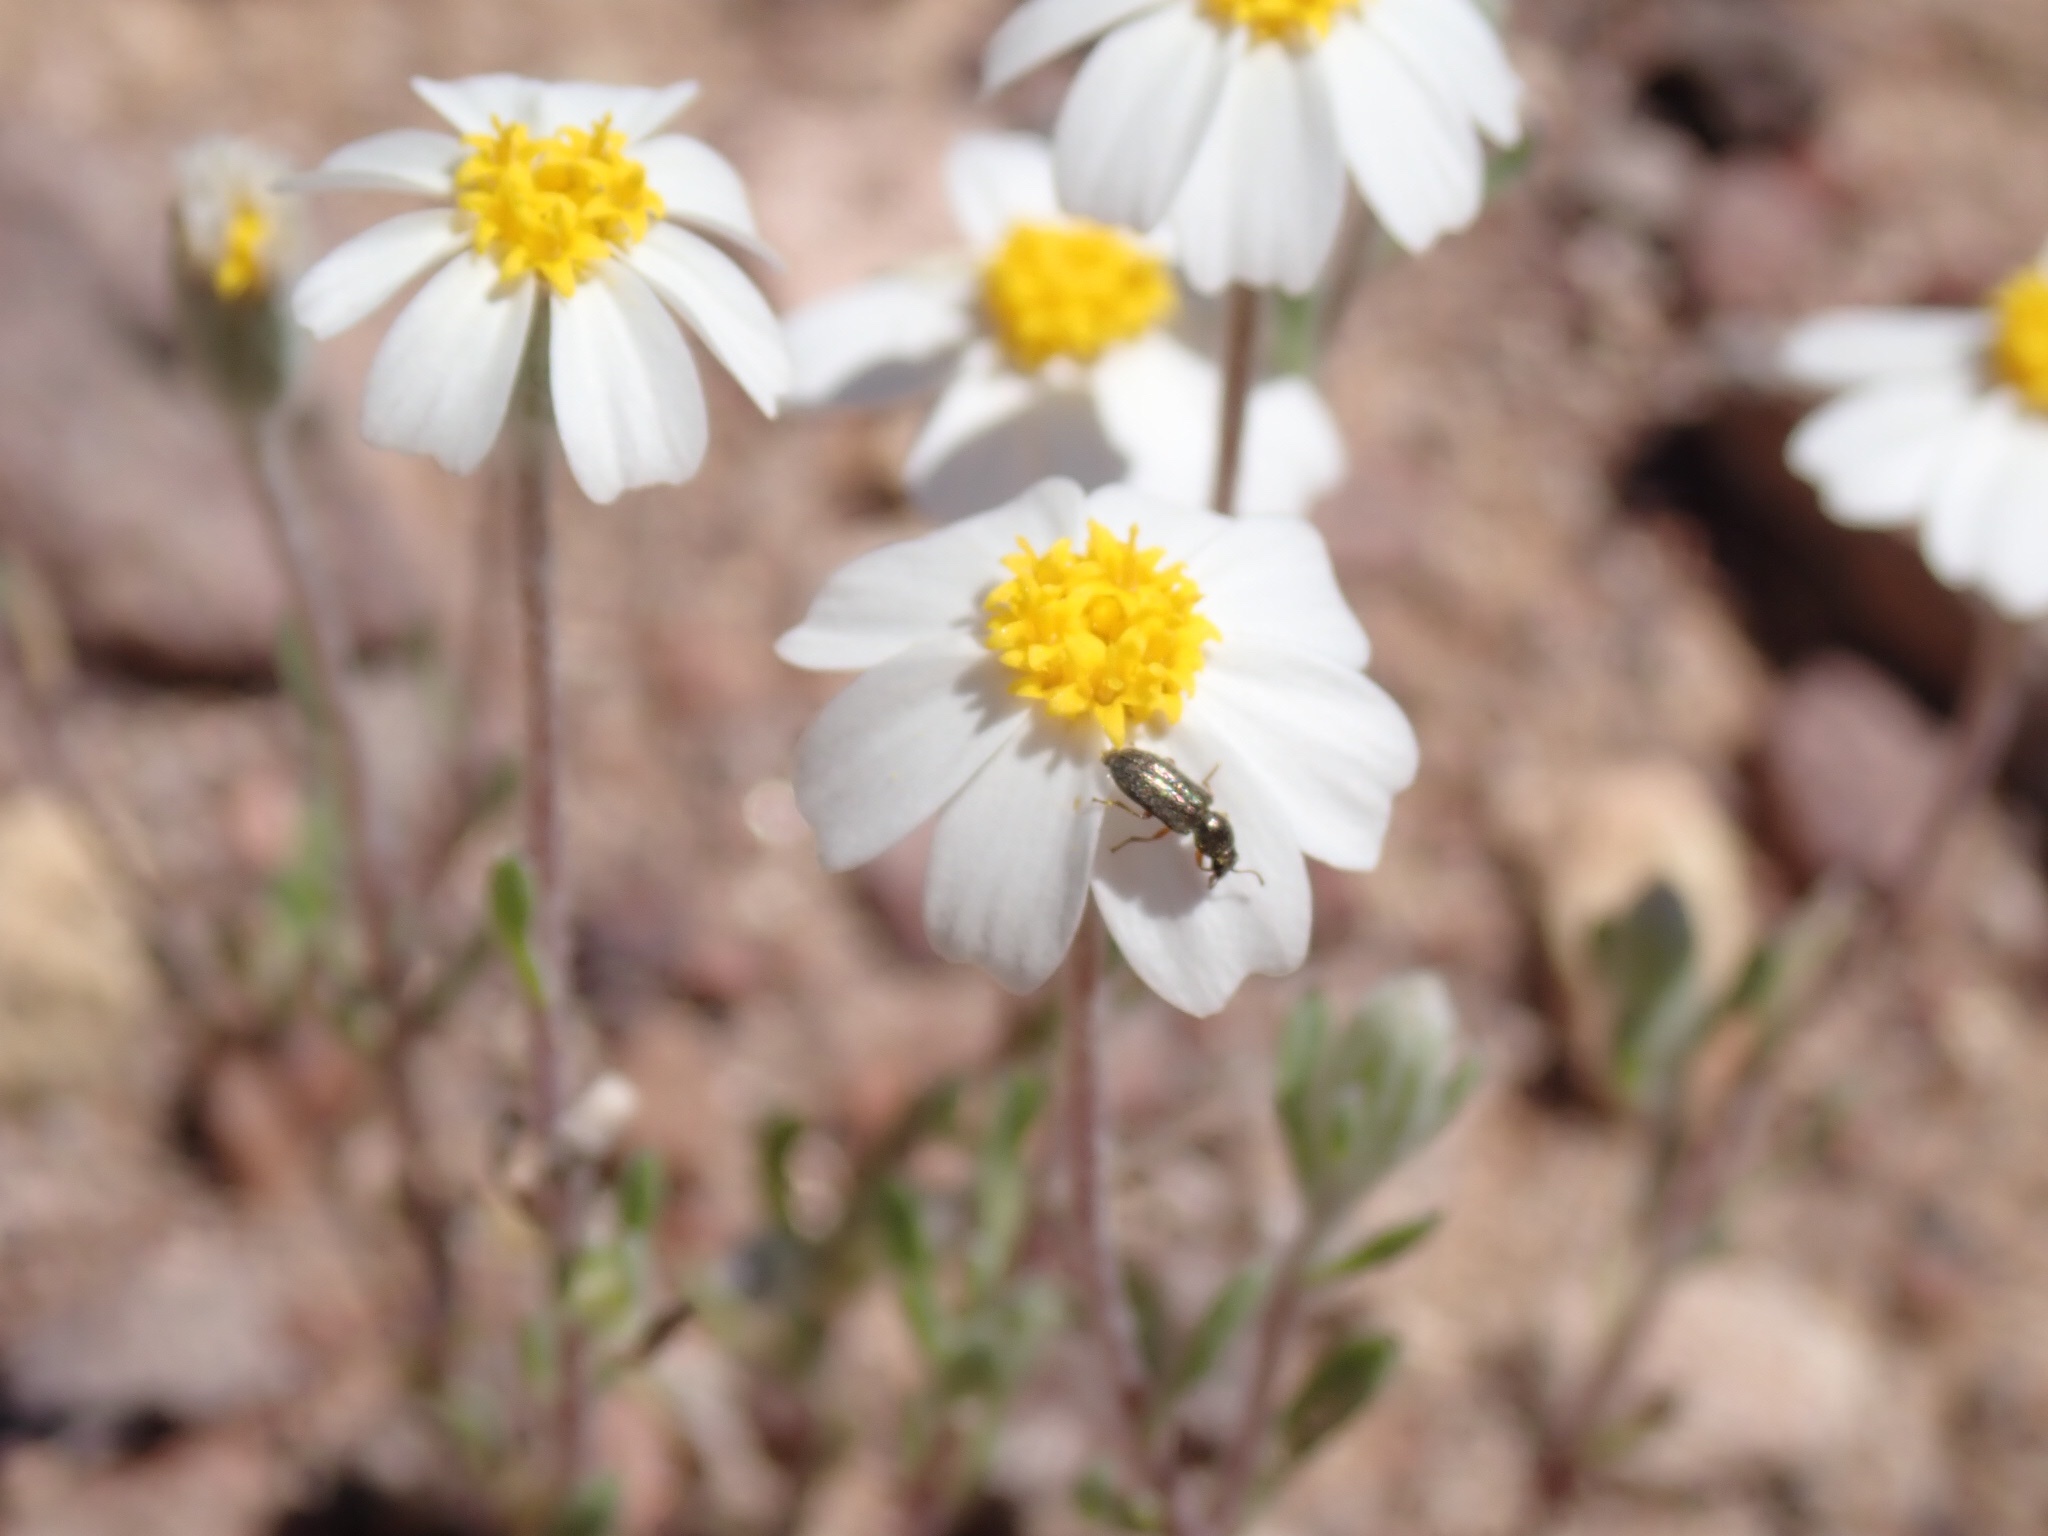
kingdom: Plantae
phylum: Tracheophyta
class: Magnoliopsida
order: Asterales
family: Asteraceae
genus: Eriophyllum
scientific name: Eriophyllum lanosum
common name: White easter-bonnets
